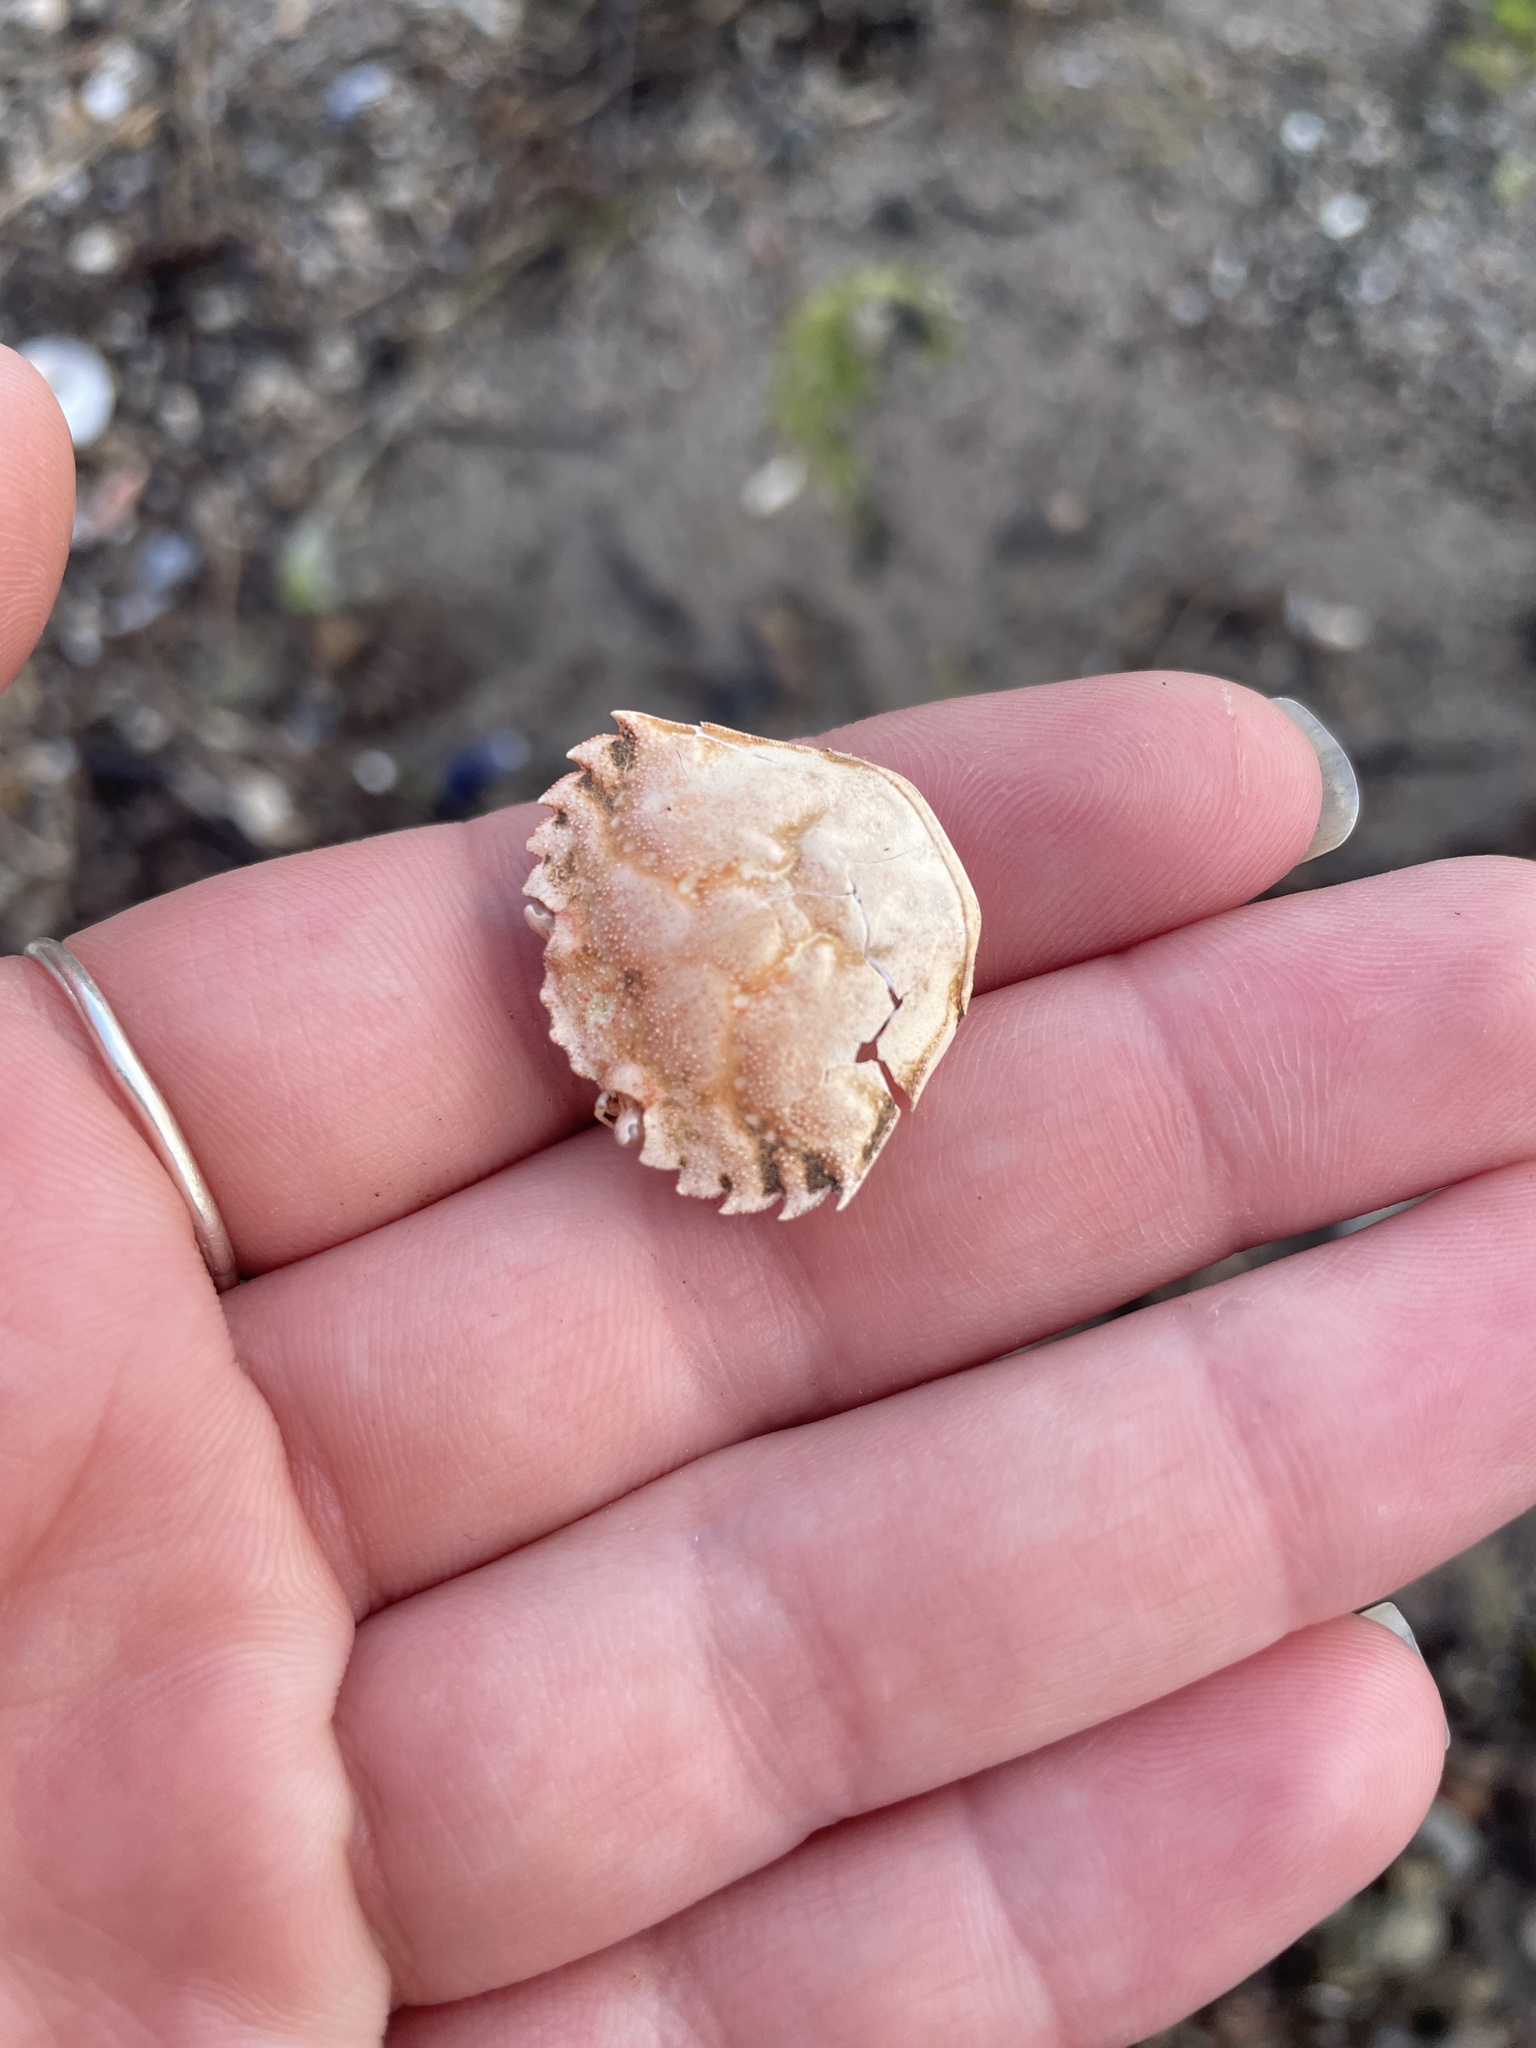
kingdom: Animalia
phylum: Arthropoda
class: Malacostraca
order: Decapoda
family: Carcinidae
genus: Carcinus
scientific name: Carcinus maenas
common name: European green crab
